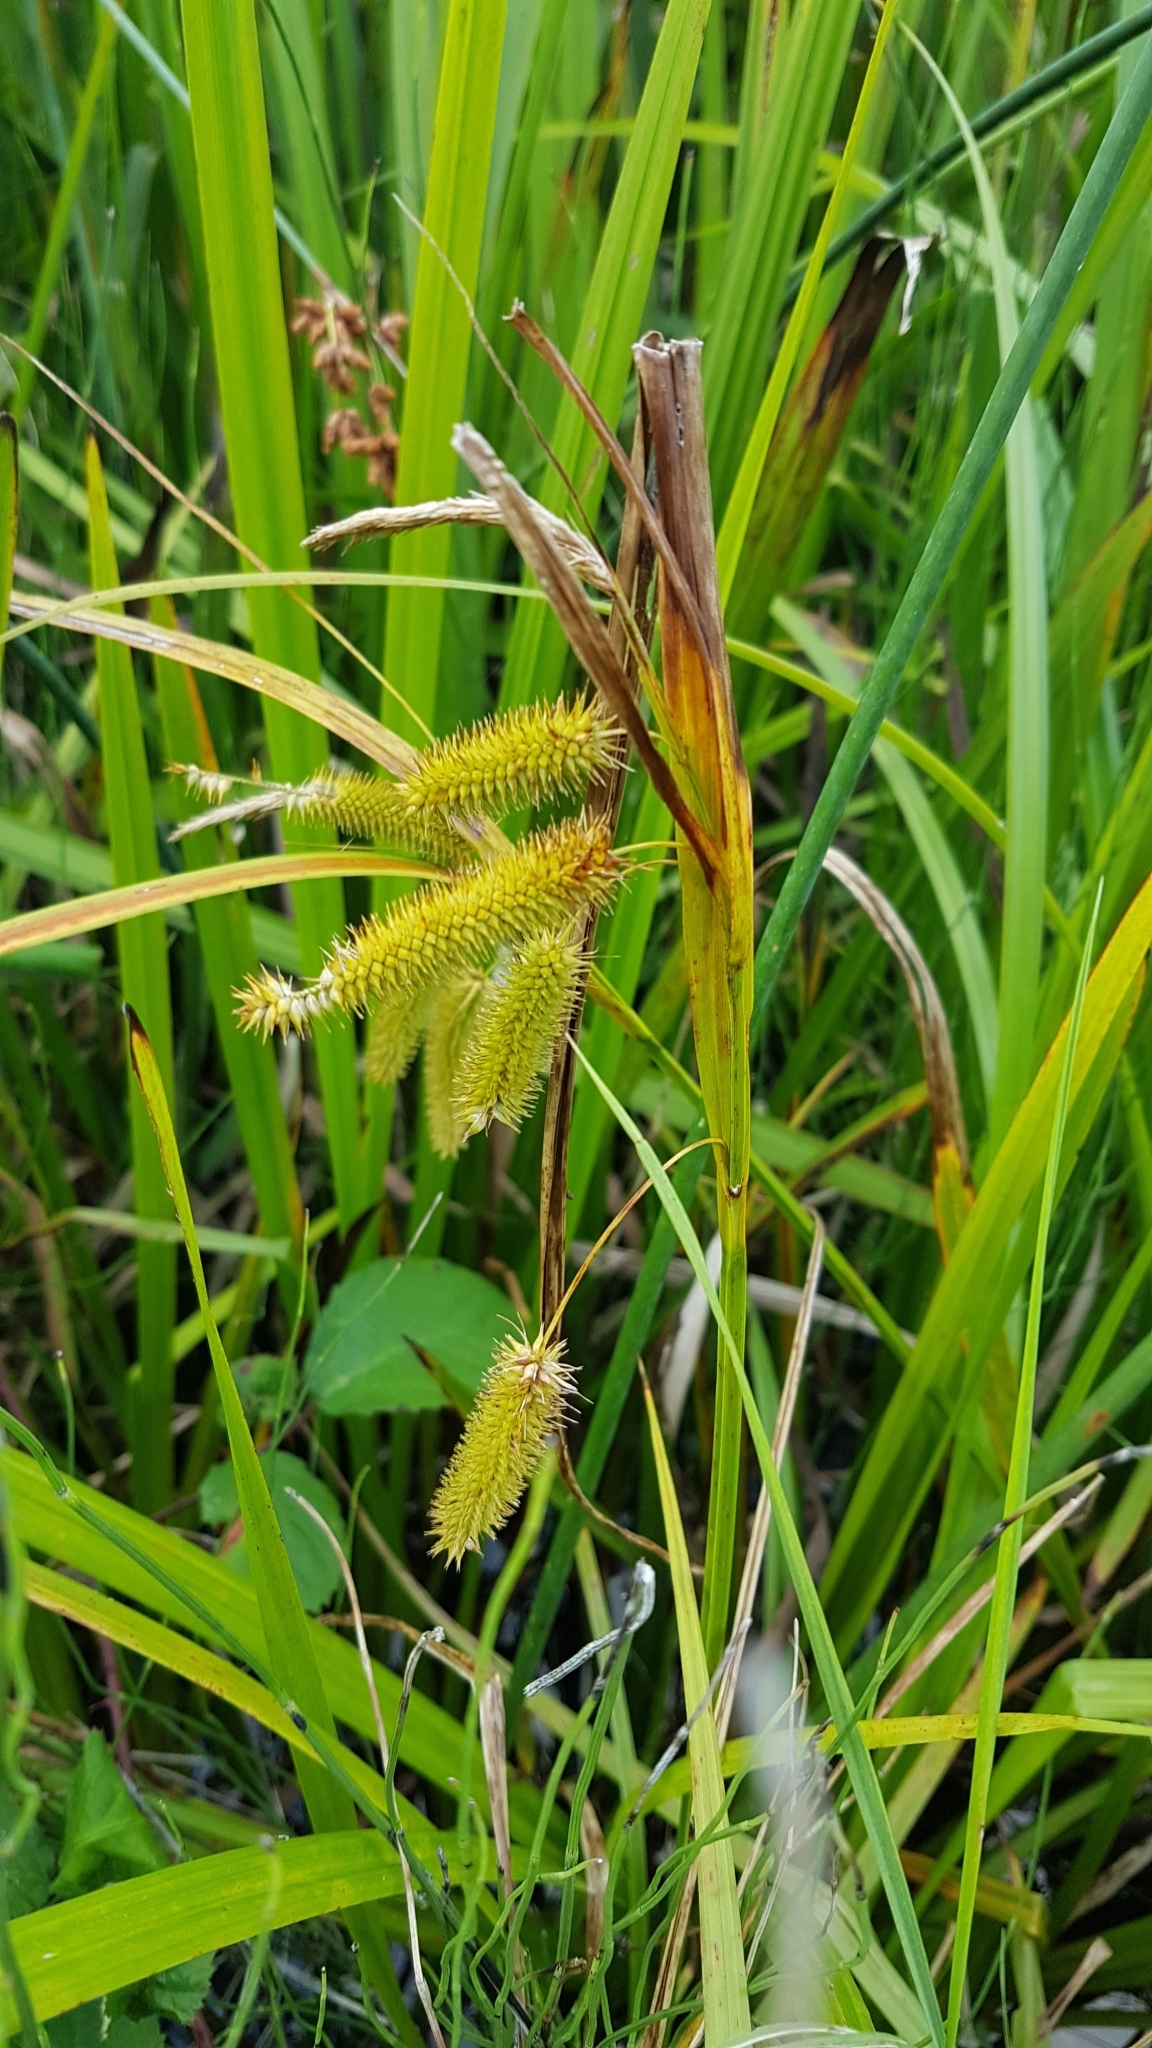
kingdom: Plantae
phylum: Tracheophyta
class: Liliopsida
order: Poales
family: Cyperaceae
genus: Carex
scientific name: Carex pseudocyperus
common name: Cyperus sedge
